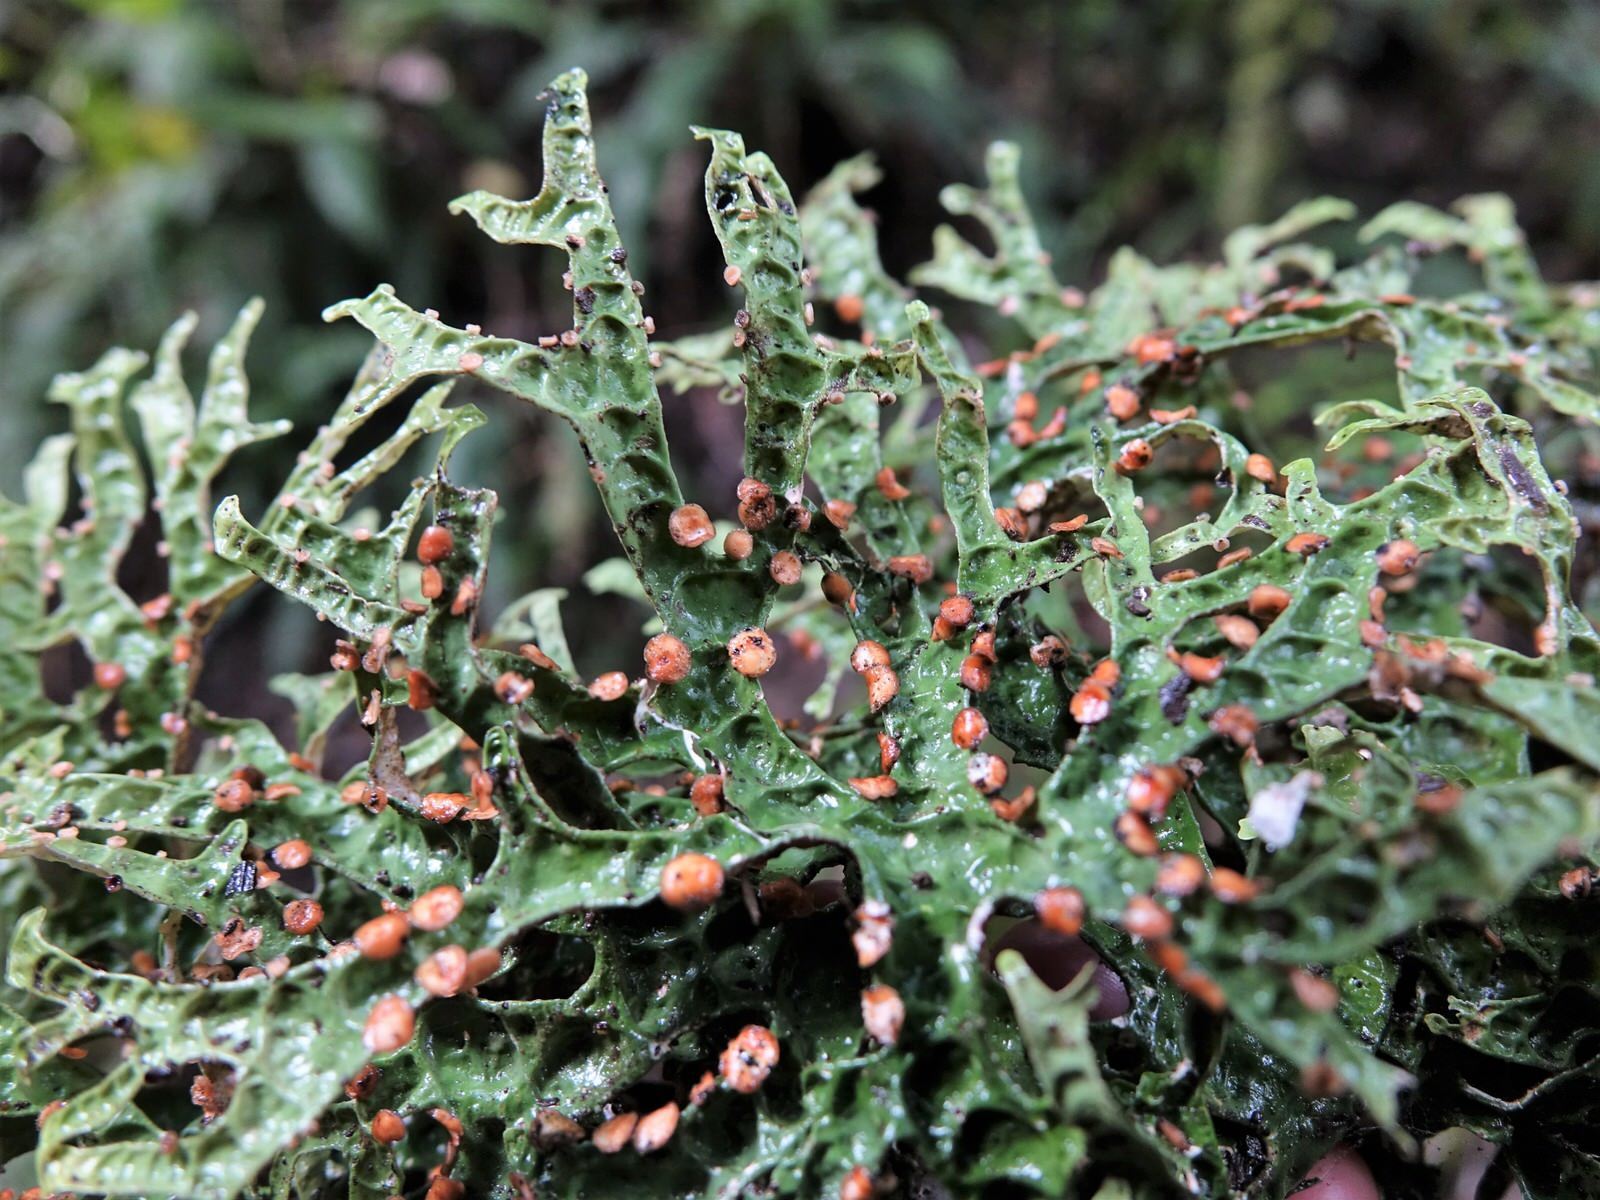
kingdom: Fungi
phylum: Ascomycota
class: Lecanoromycetes
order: Peltigerales
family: Lobariaceae
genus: Pseudocyphellaria
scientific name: Pseudocyphellaria rufovirescens
